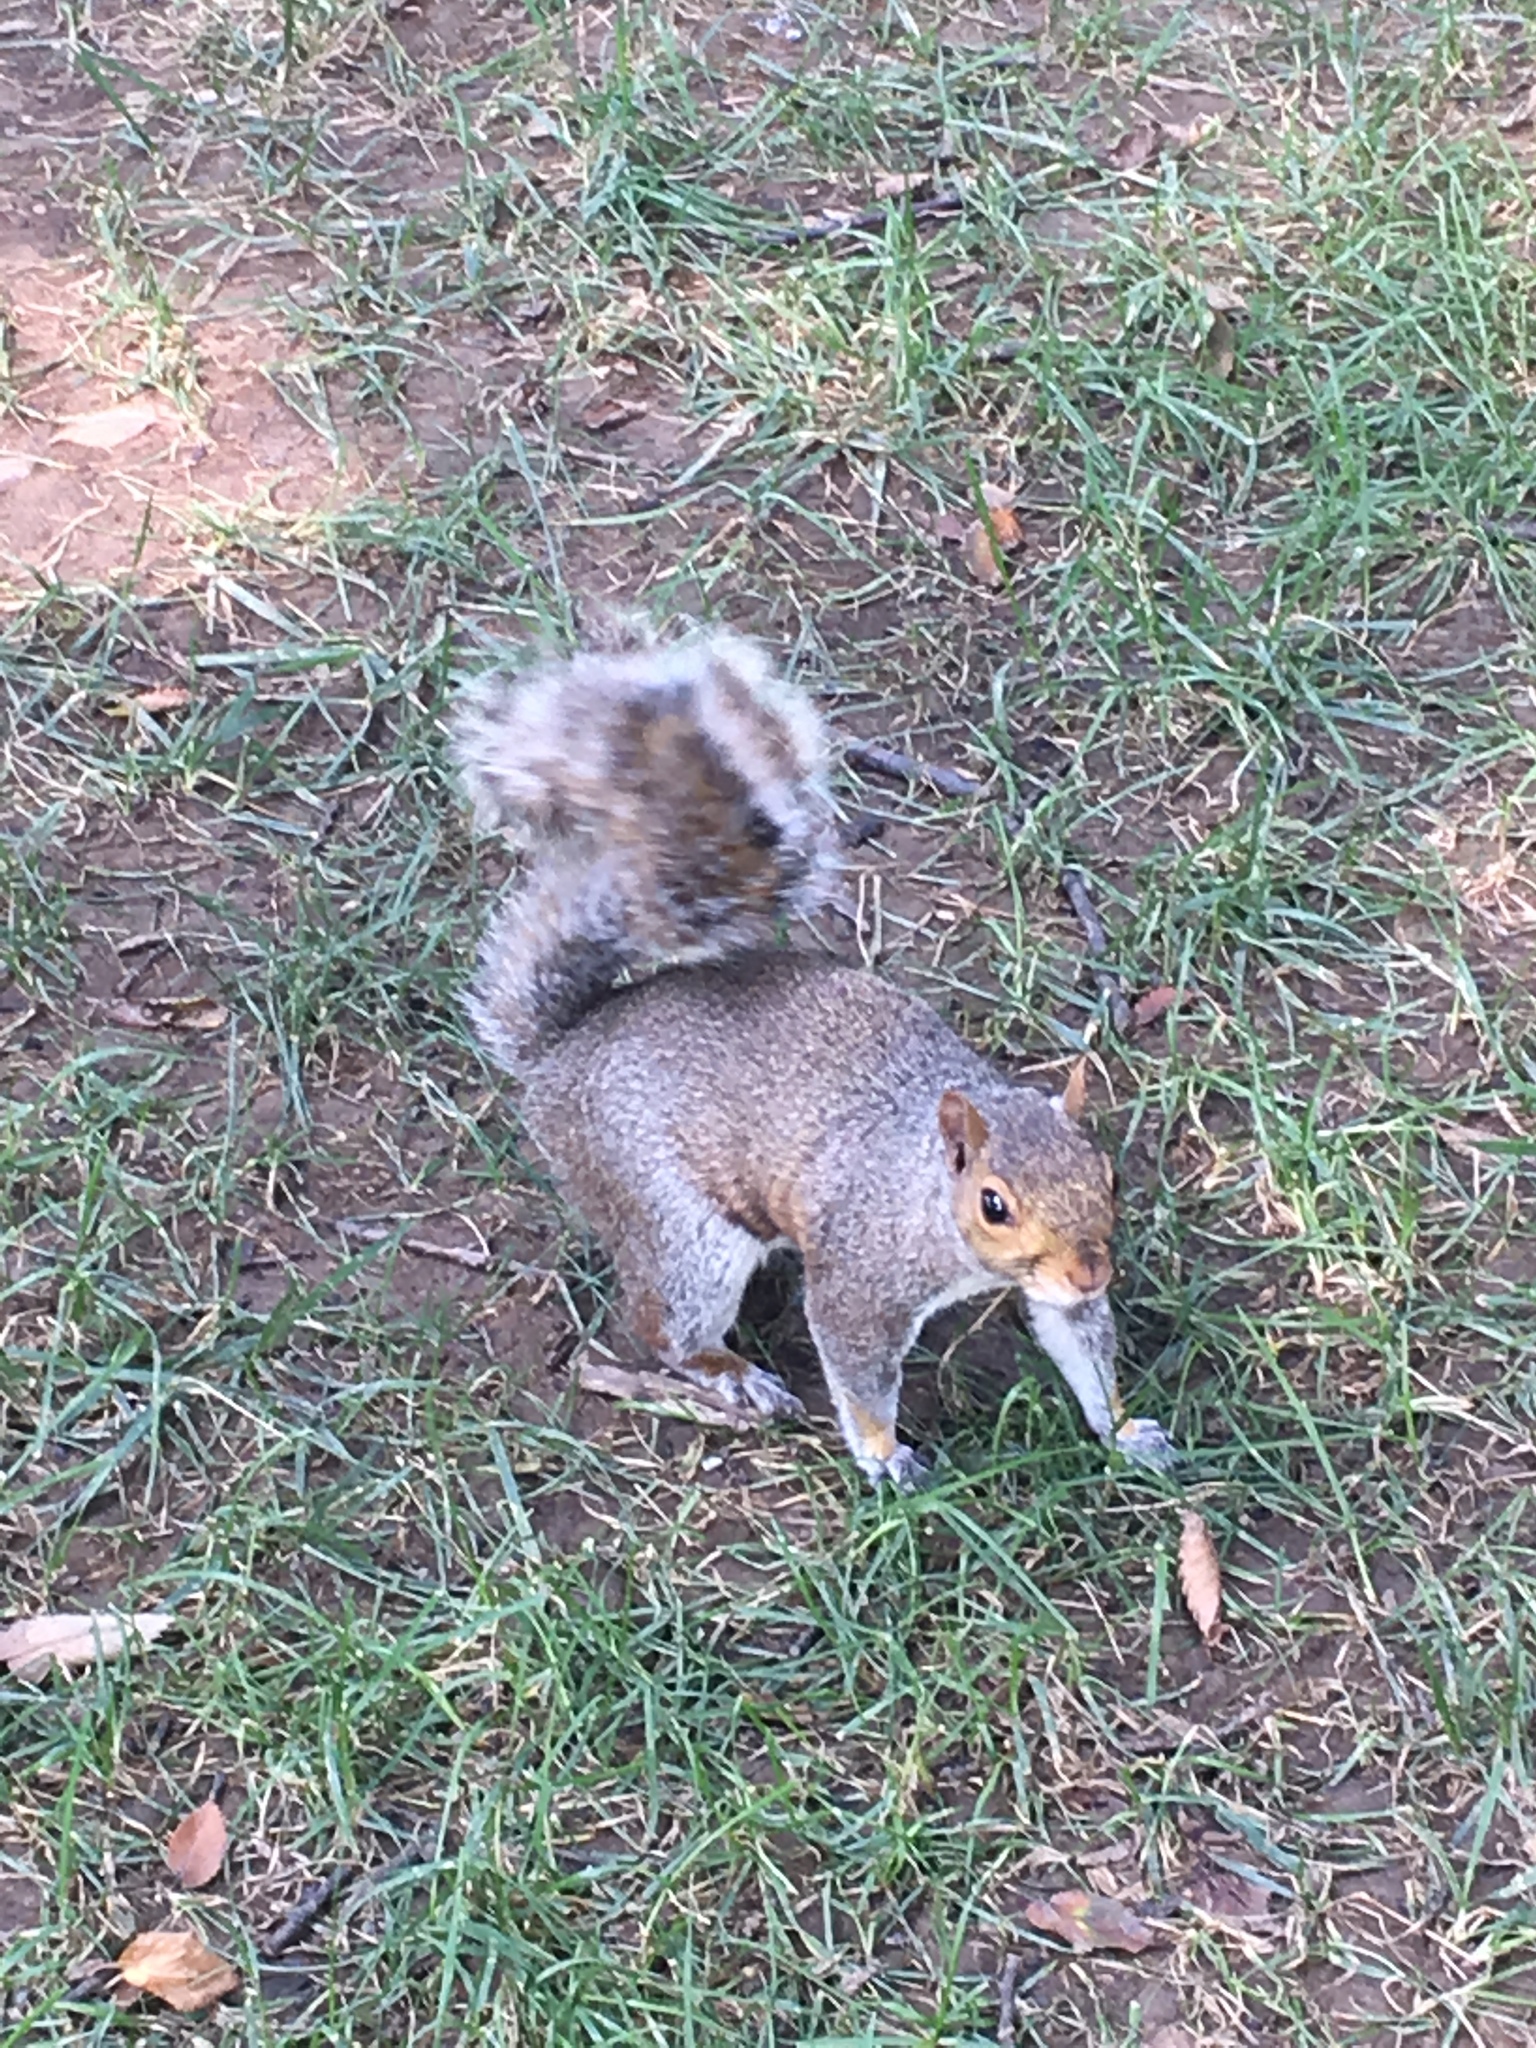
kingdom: Animalia
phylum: Chordata
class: Mammalia
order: Rodentia
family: Sciuridae
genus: Sciurus
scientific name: Sciurus carolinensis
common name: Eastern gray squirrel
